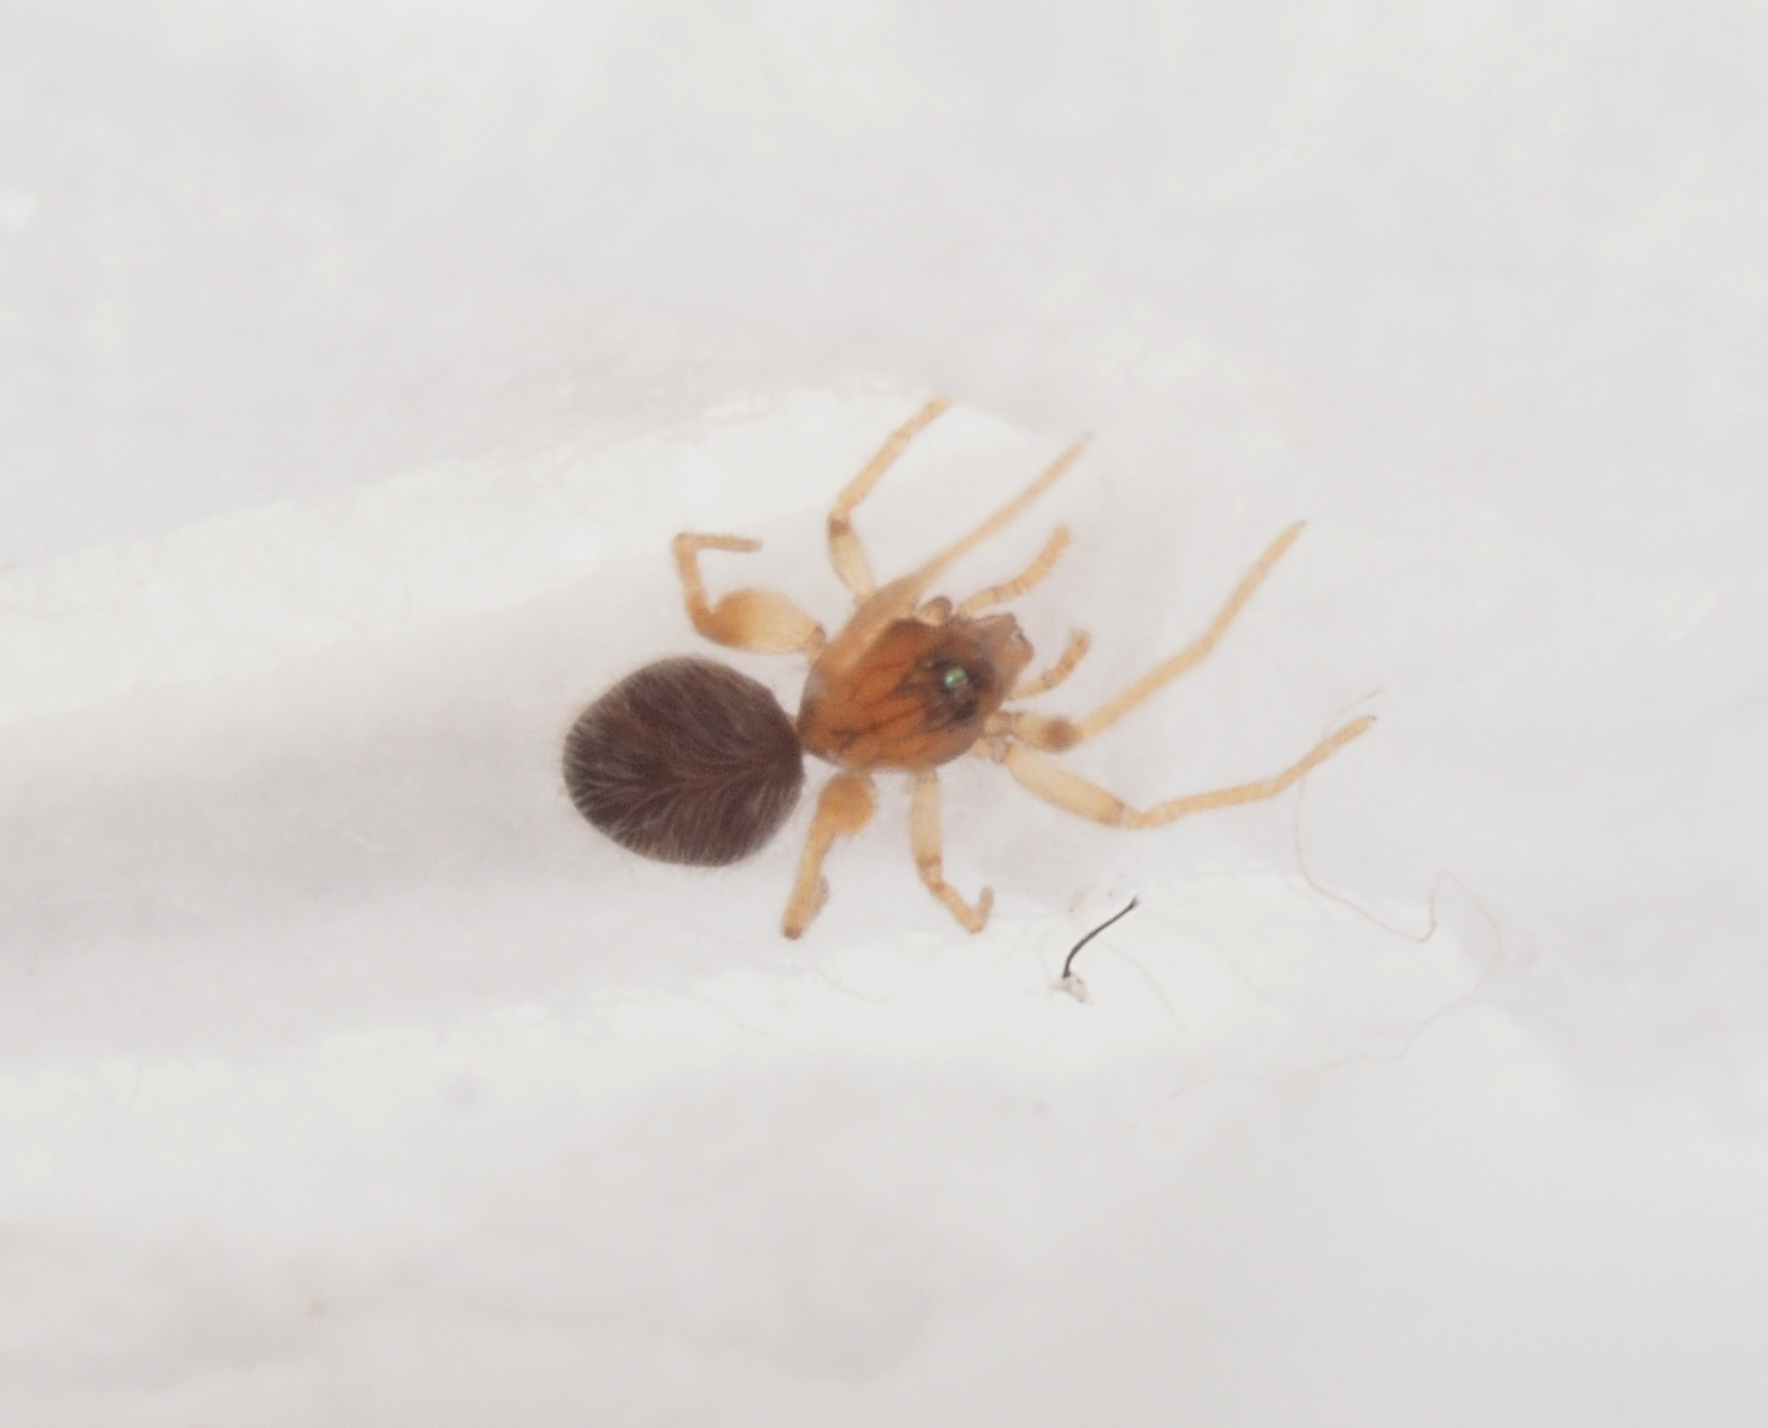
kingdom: Animalia
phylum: Arthropoda
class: Arachnida
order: Araneae
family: Oonopidae
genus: Orchestina
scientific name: Orchestina
